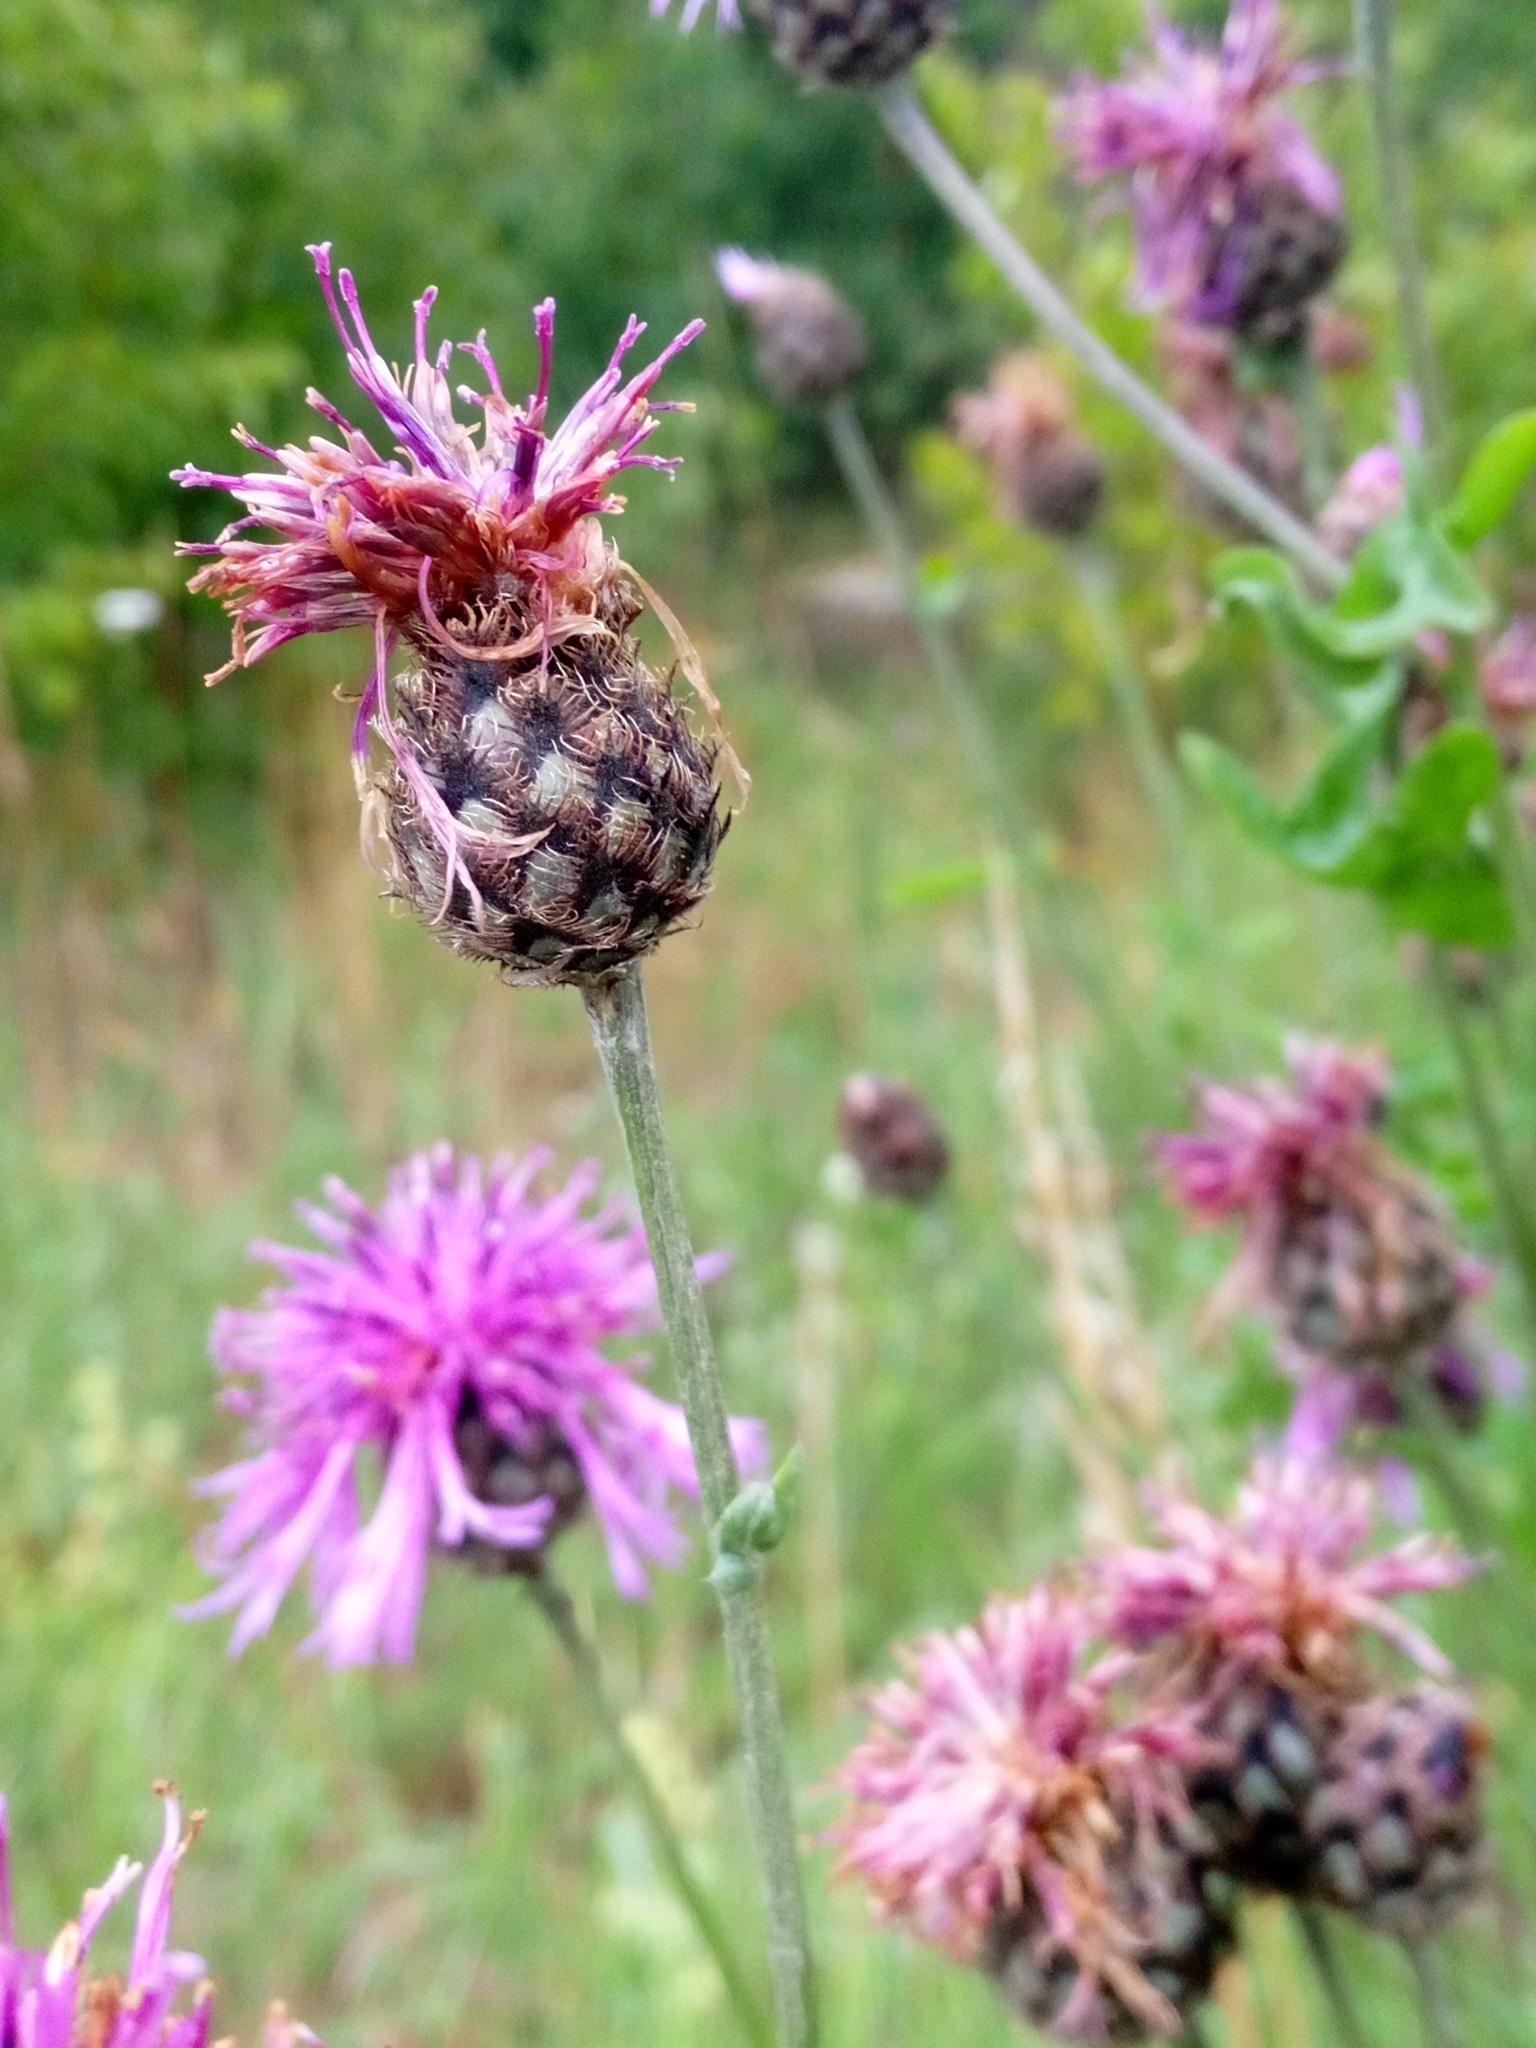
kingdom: Plantae
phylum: Tracheophyta
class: Magnoliopsida
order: Asterales
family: Asteraceae
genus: Centaurea
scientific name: Centaurea scabiosa
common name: Greater knapweed
